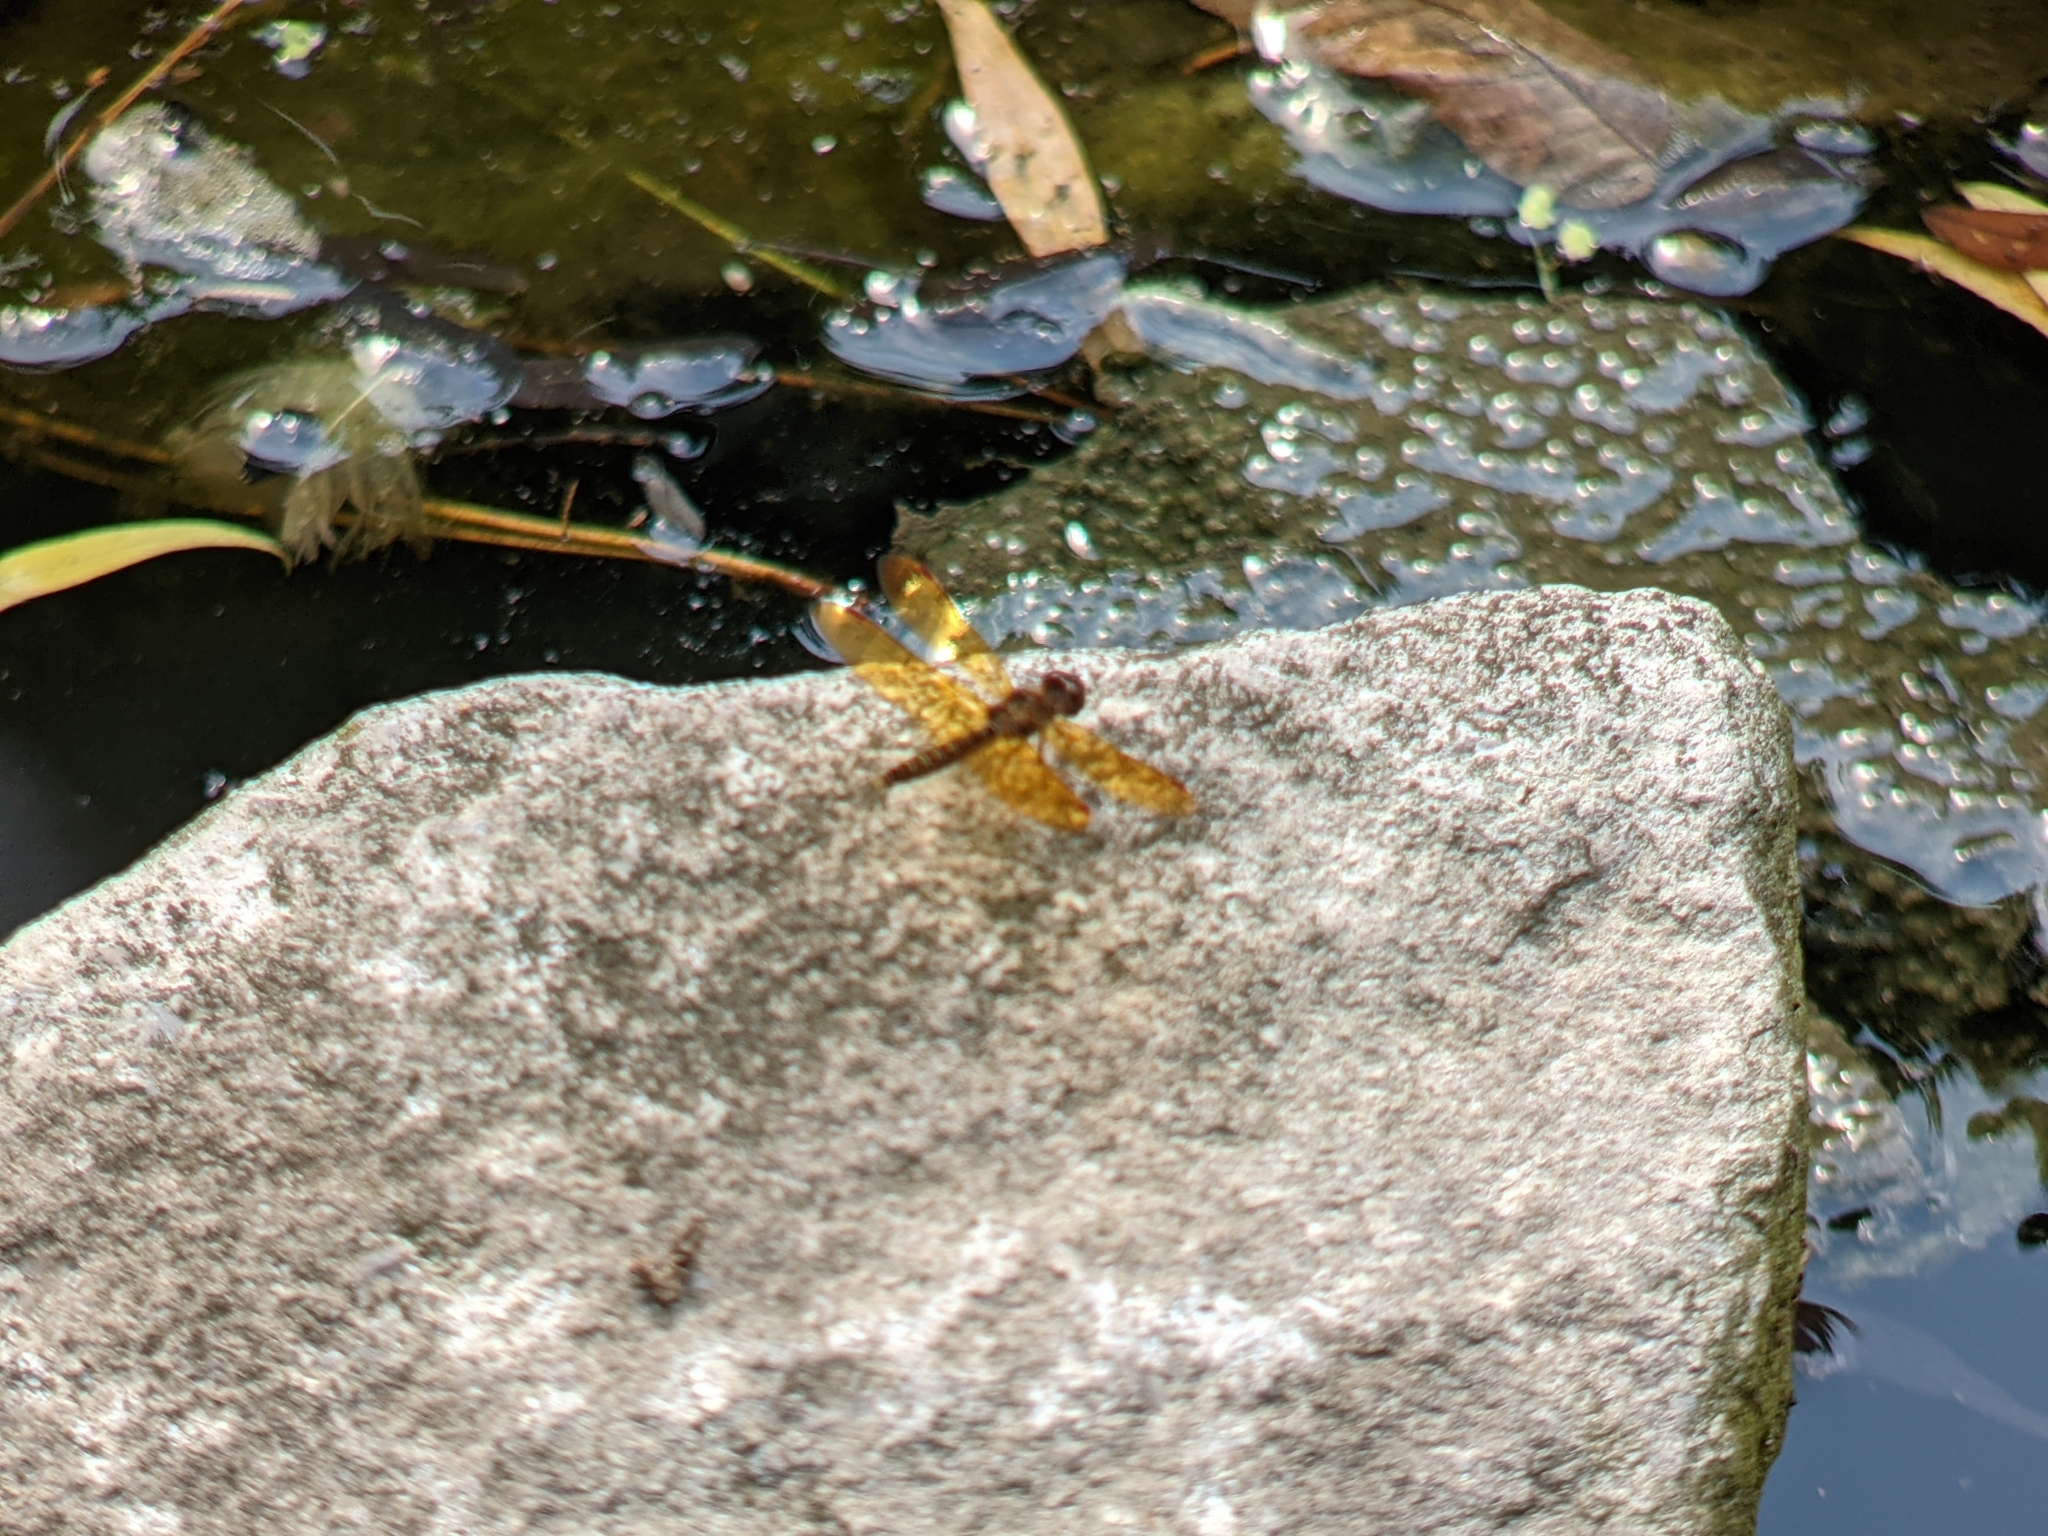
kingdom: Animalia
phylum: Arthropoda
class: Insecta
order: Odonata
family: Libellulidae
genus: Perithemis
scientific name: Perithemis tenera
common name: Eastern amberwing
